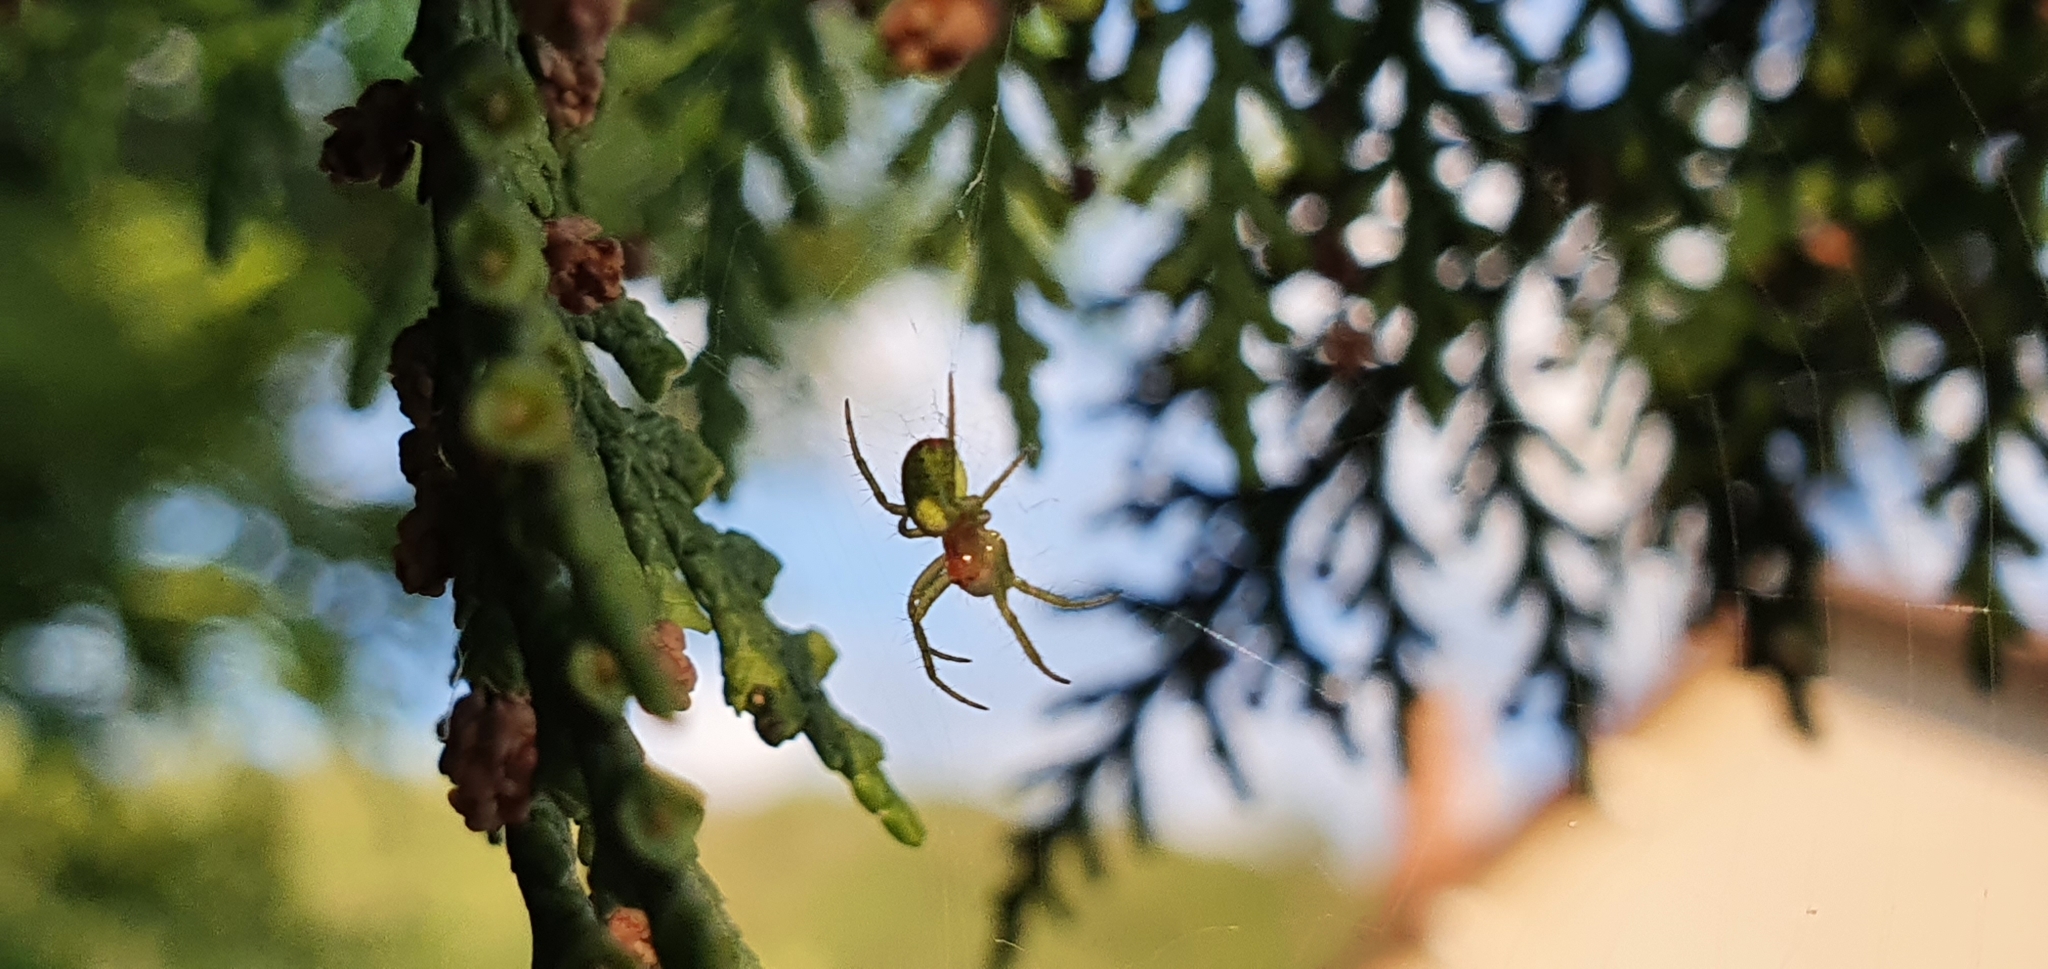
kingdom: Animalia
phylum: Arthropoda
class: Arachnida
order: Araneae
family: Araneidae
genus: Araniella
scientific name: Araniella
